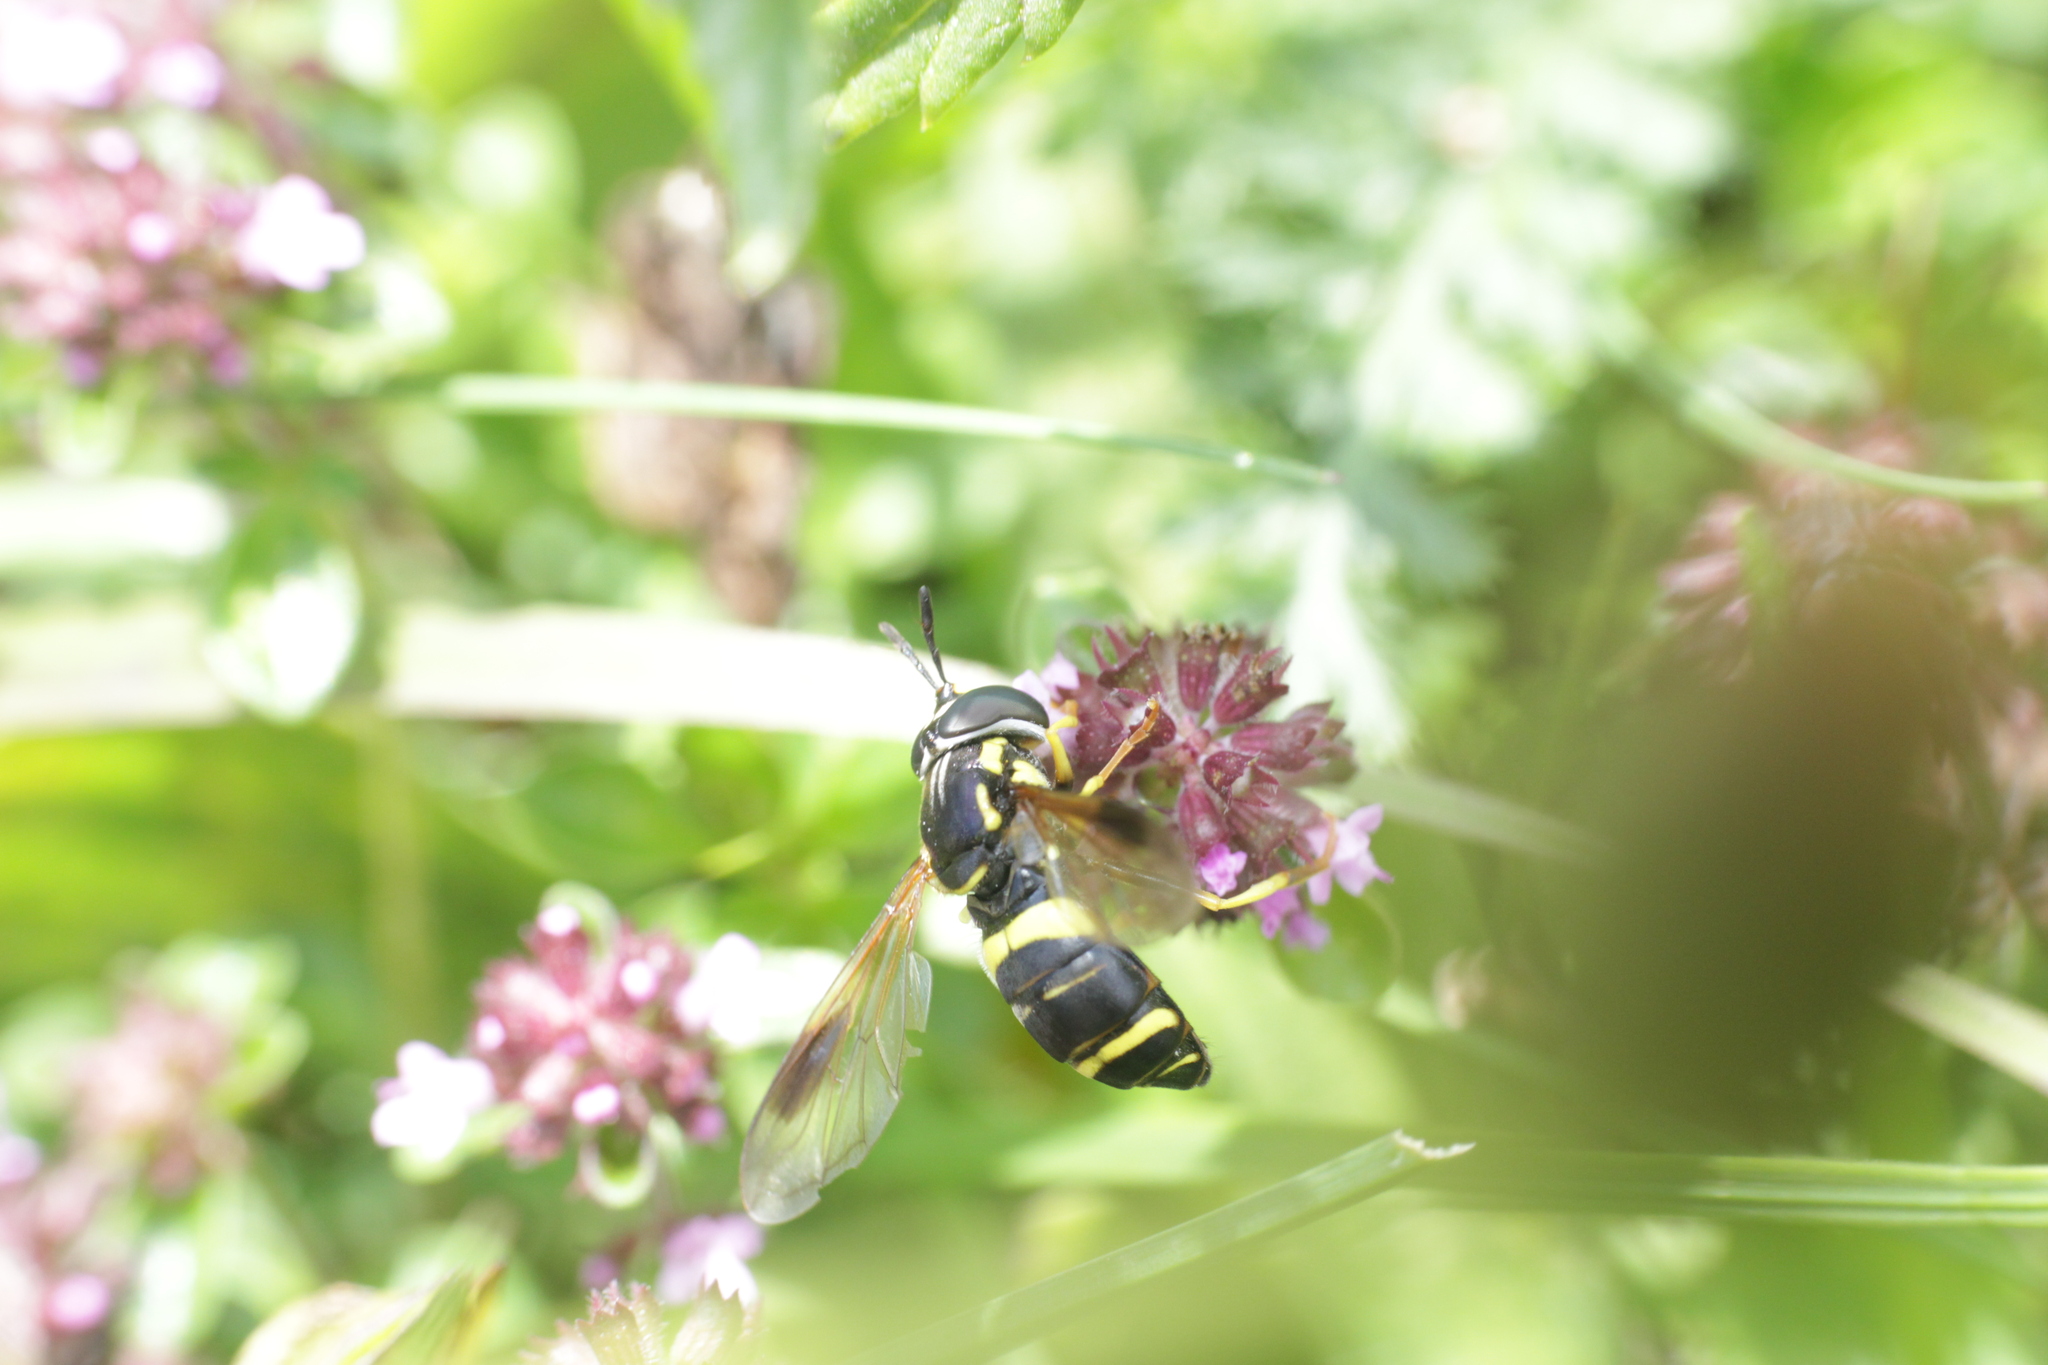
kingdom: Animalia
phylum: Arthropoda
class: Insecta
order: Diptera
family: Syrphidae
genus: Chrysotoxum
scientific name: Chrysotoxum bicincta
